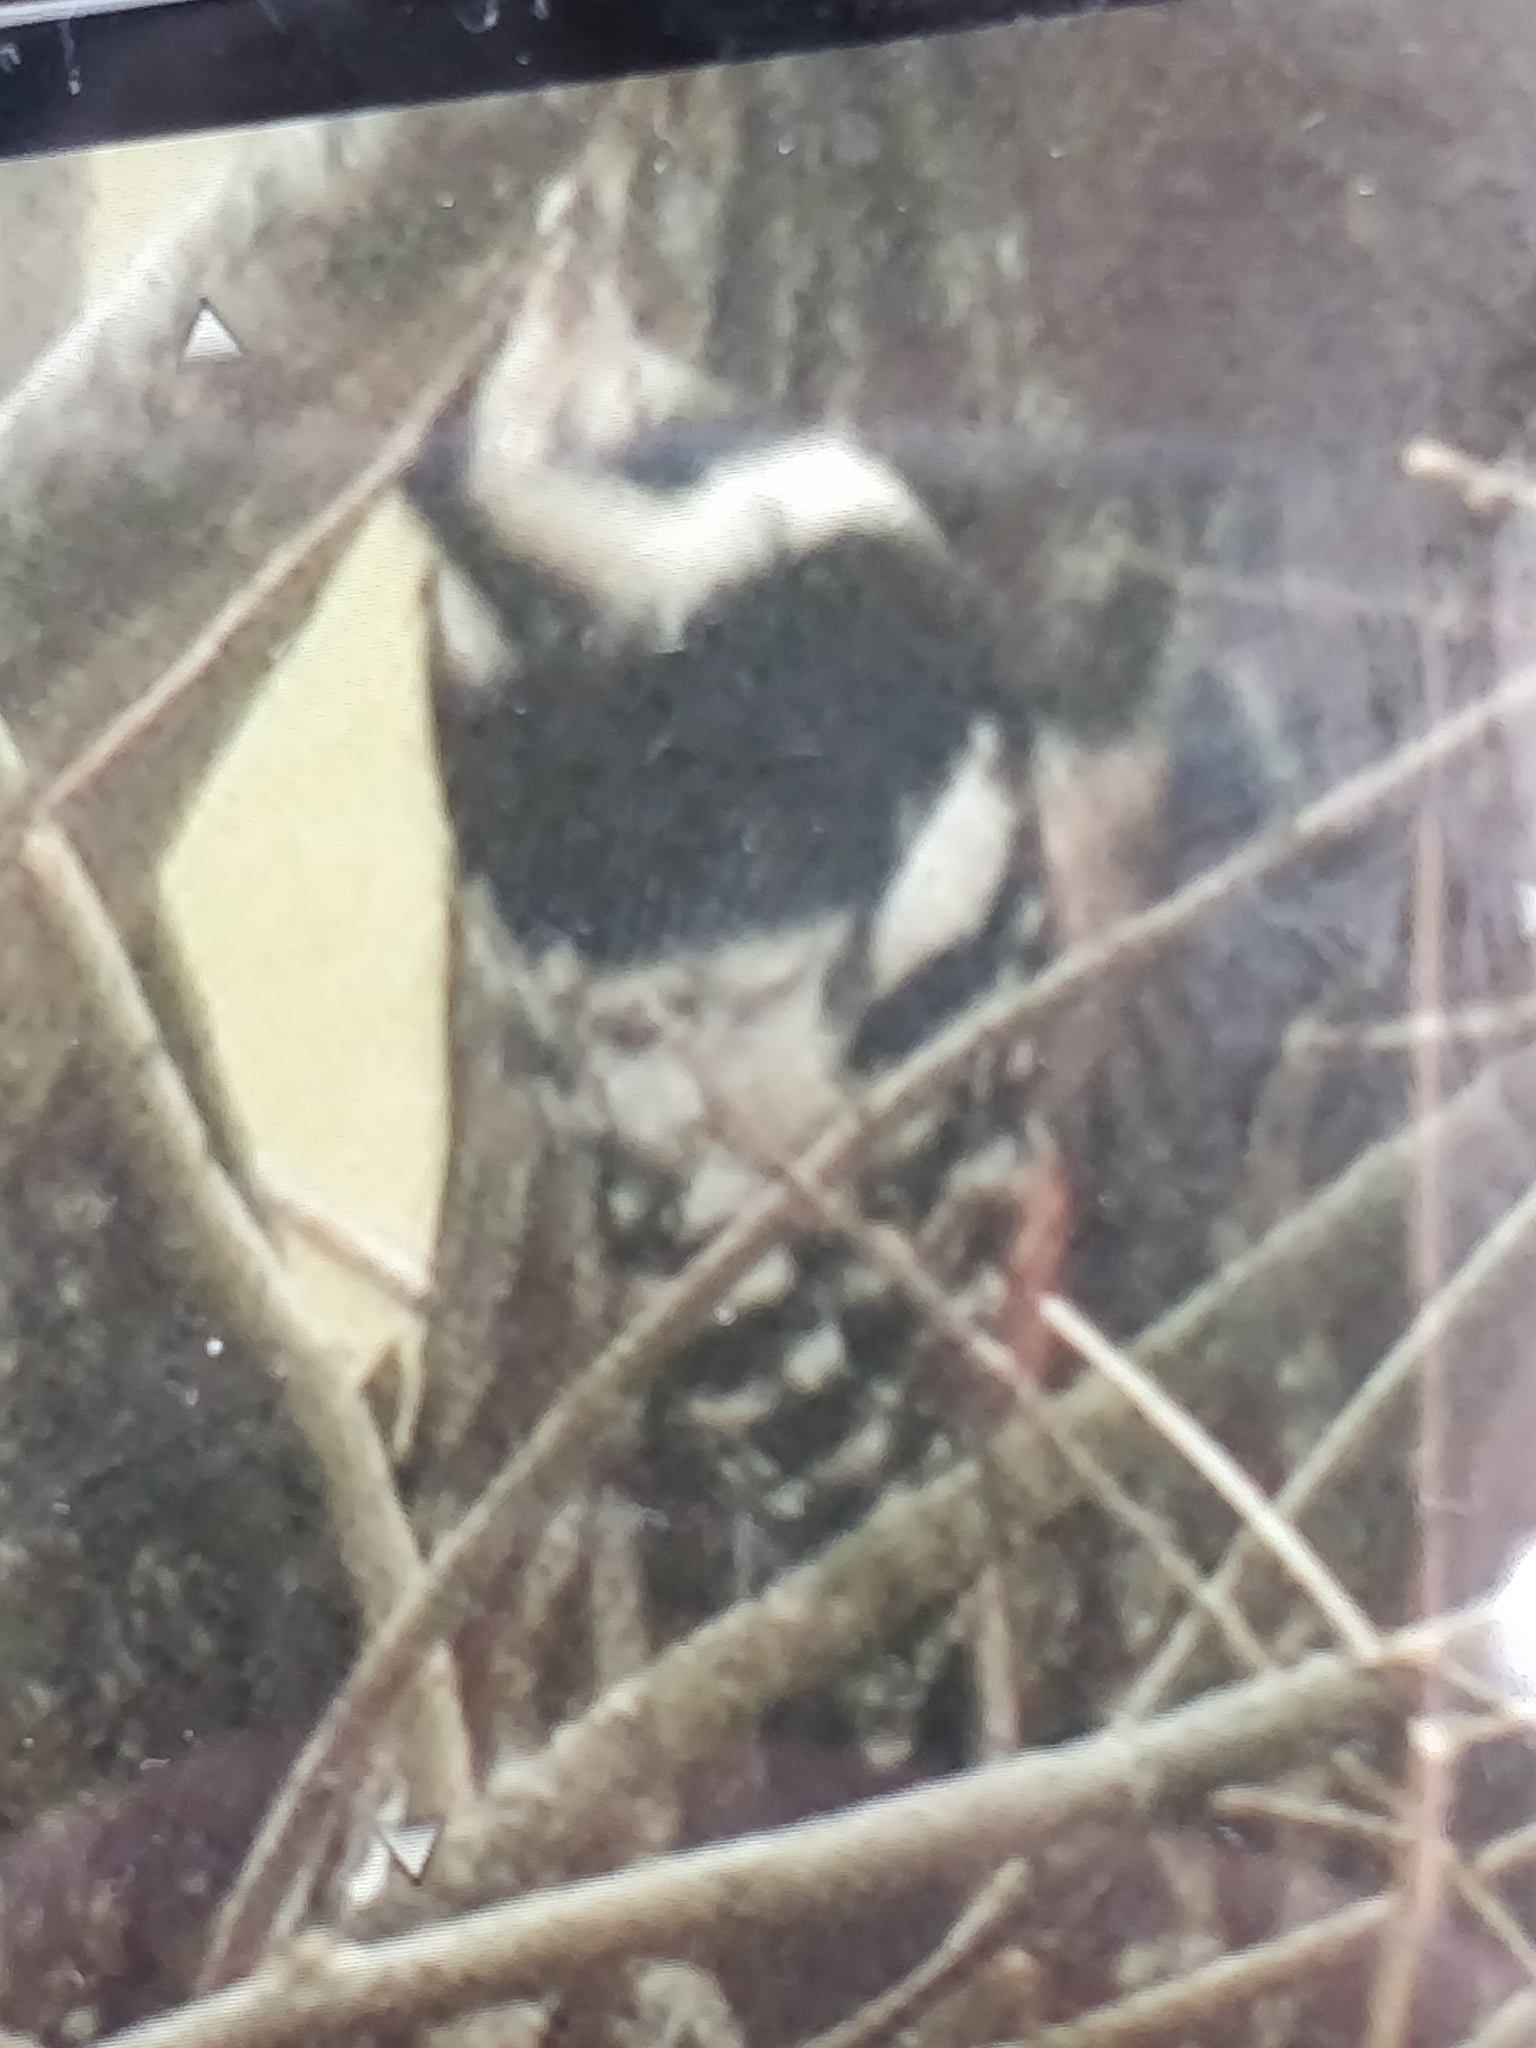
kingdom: Animalia
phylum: Chordata
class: Aves
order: Piciformes
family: Picidae
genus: Dendrocopos
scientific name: Dendrocopos leucotos
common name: White-backed woodpecker
